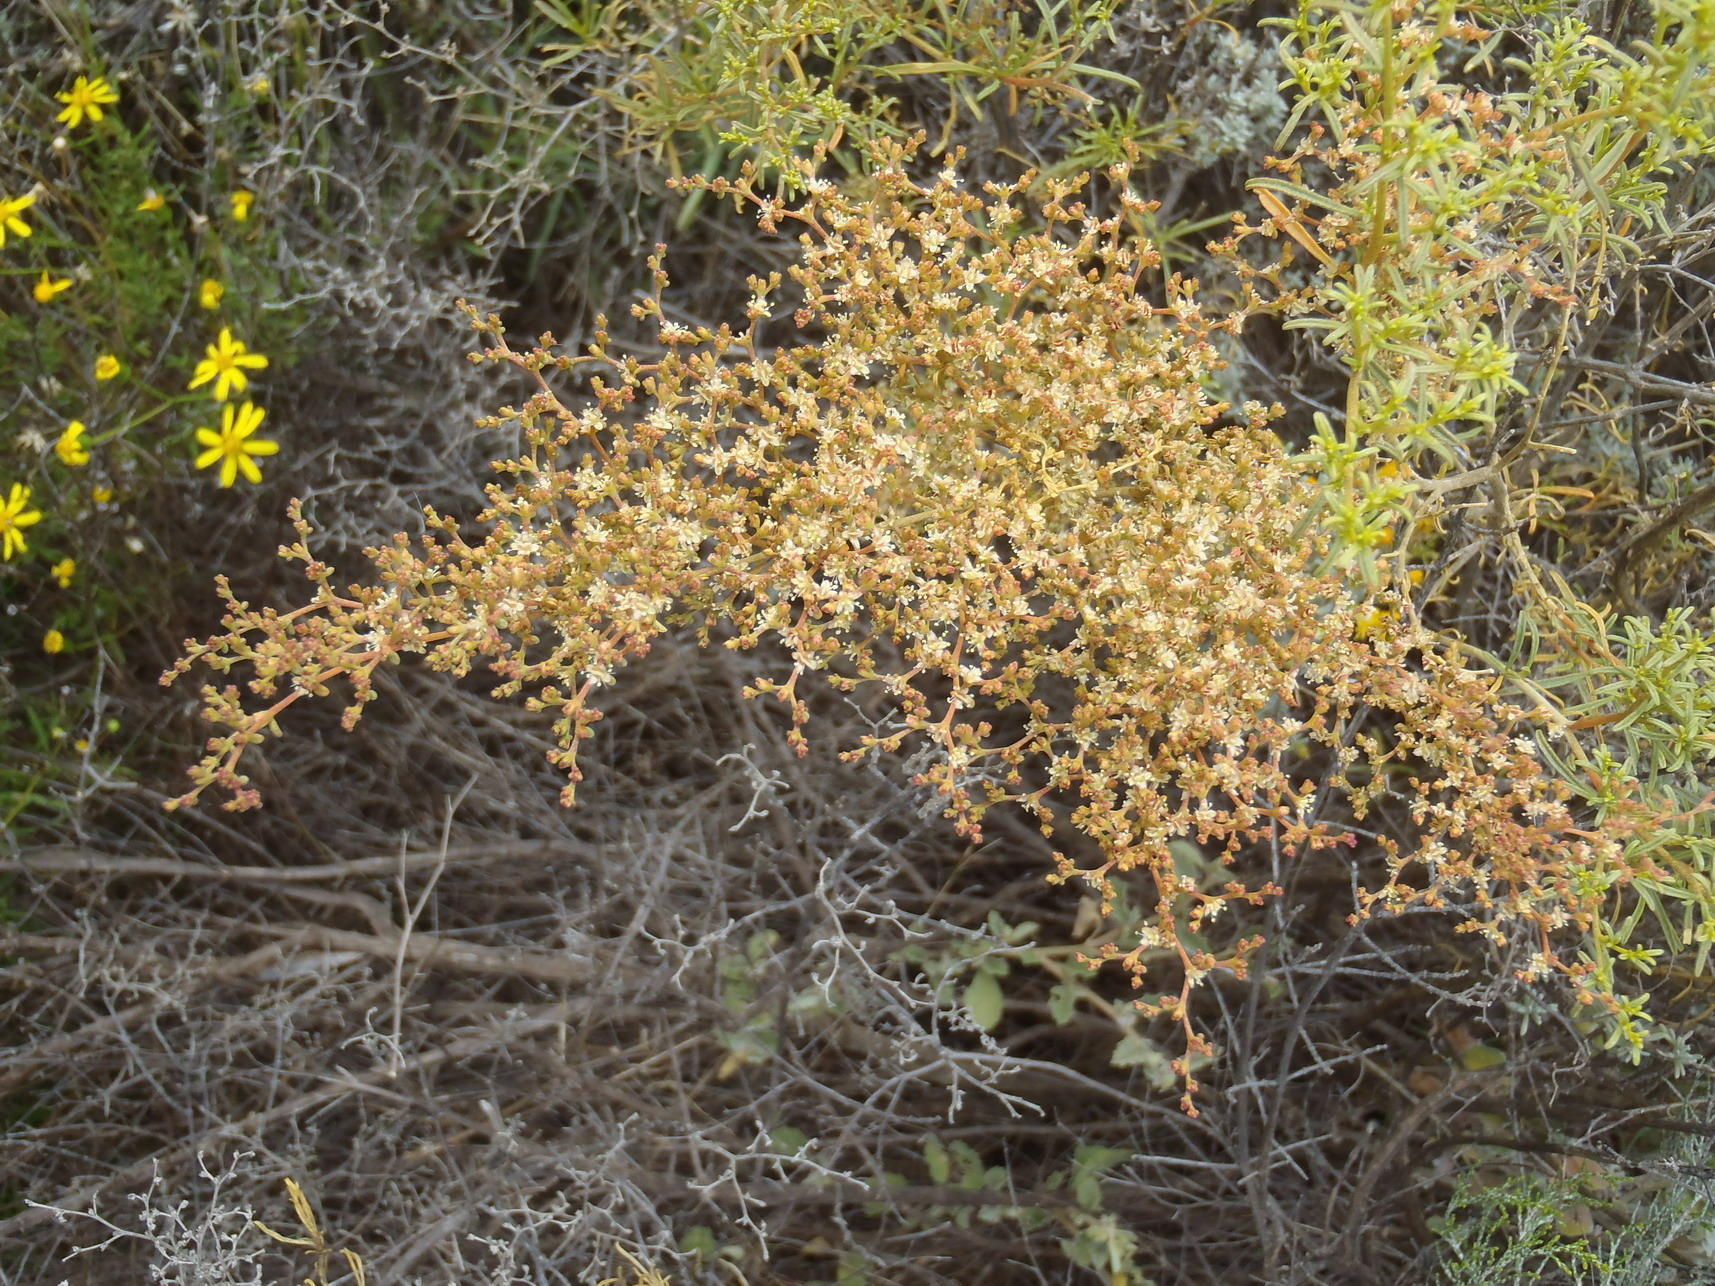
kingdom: Plantae
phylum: Tracheophyta
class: Magnoliopsida
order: Caryophyllales
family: Aizoaceae
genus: Aizoon
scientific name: Aizoon africanum
